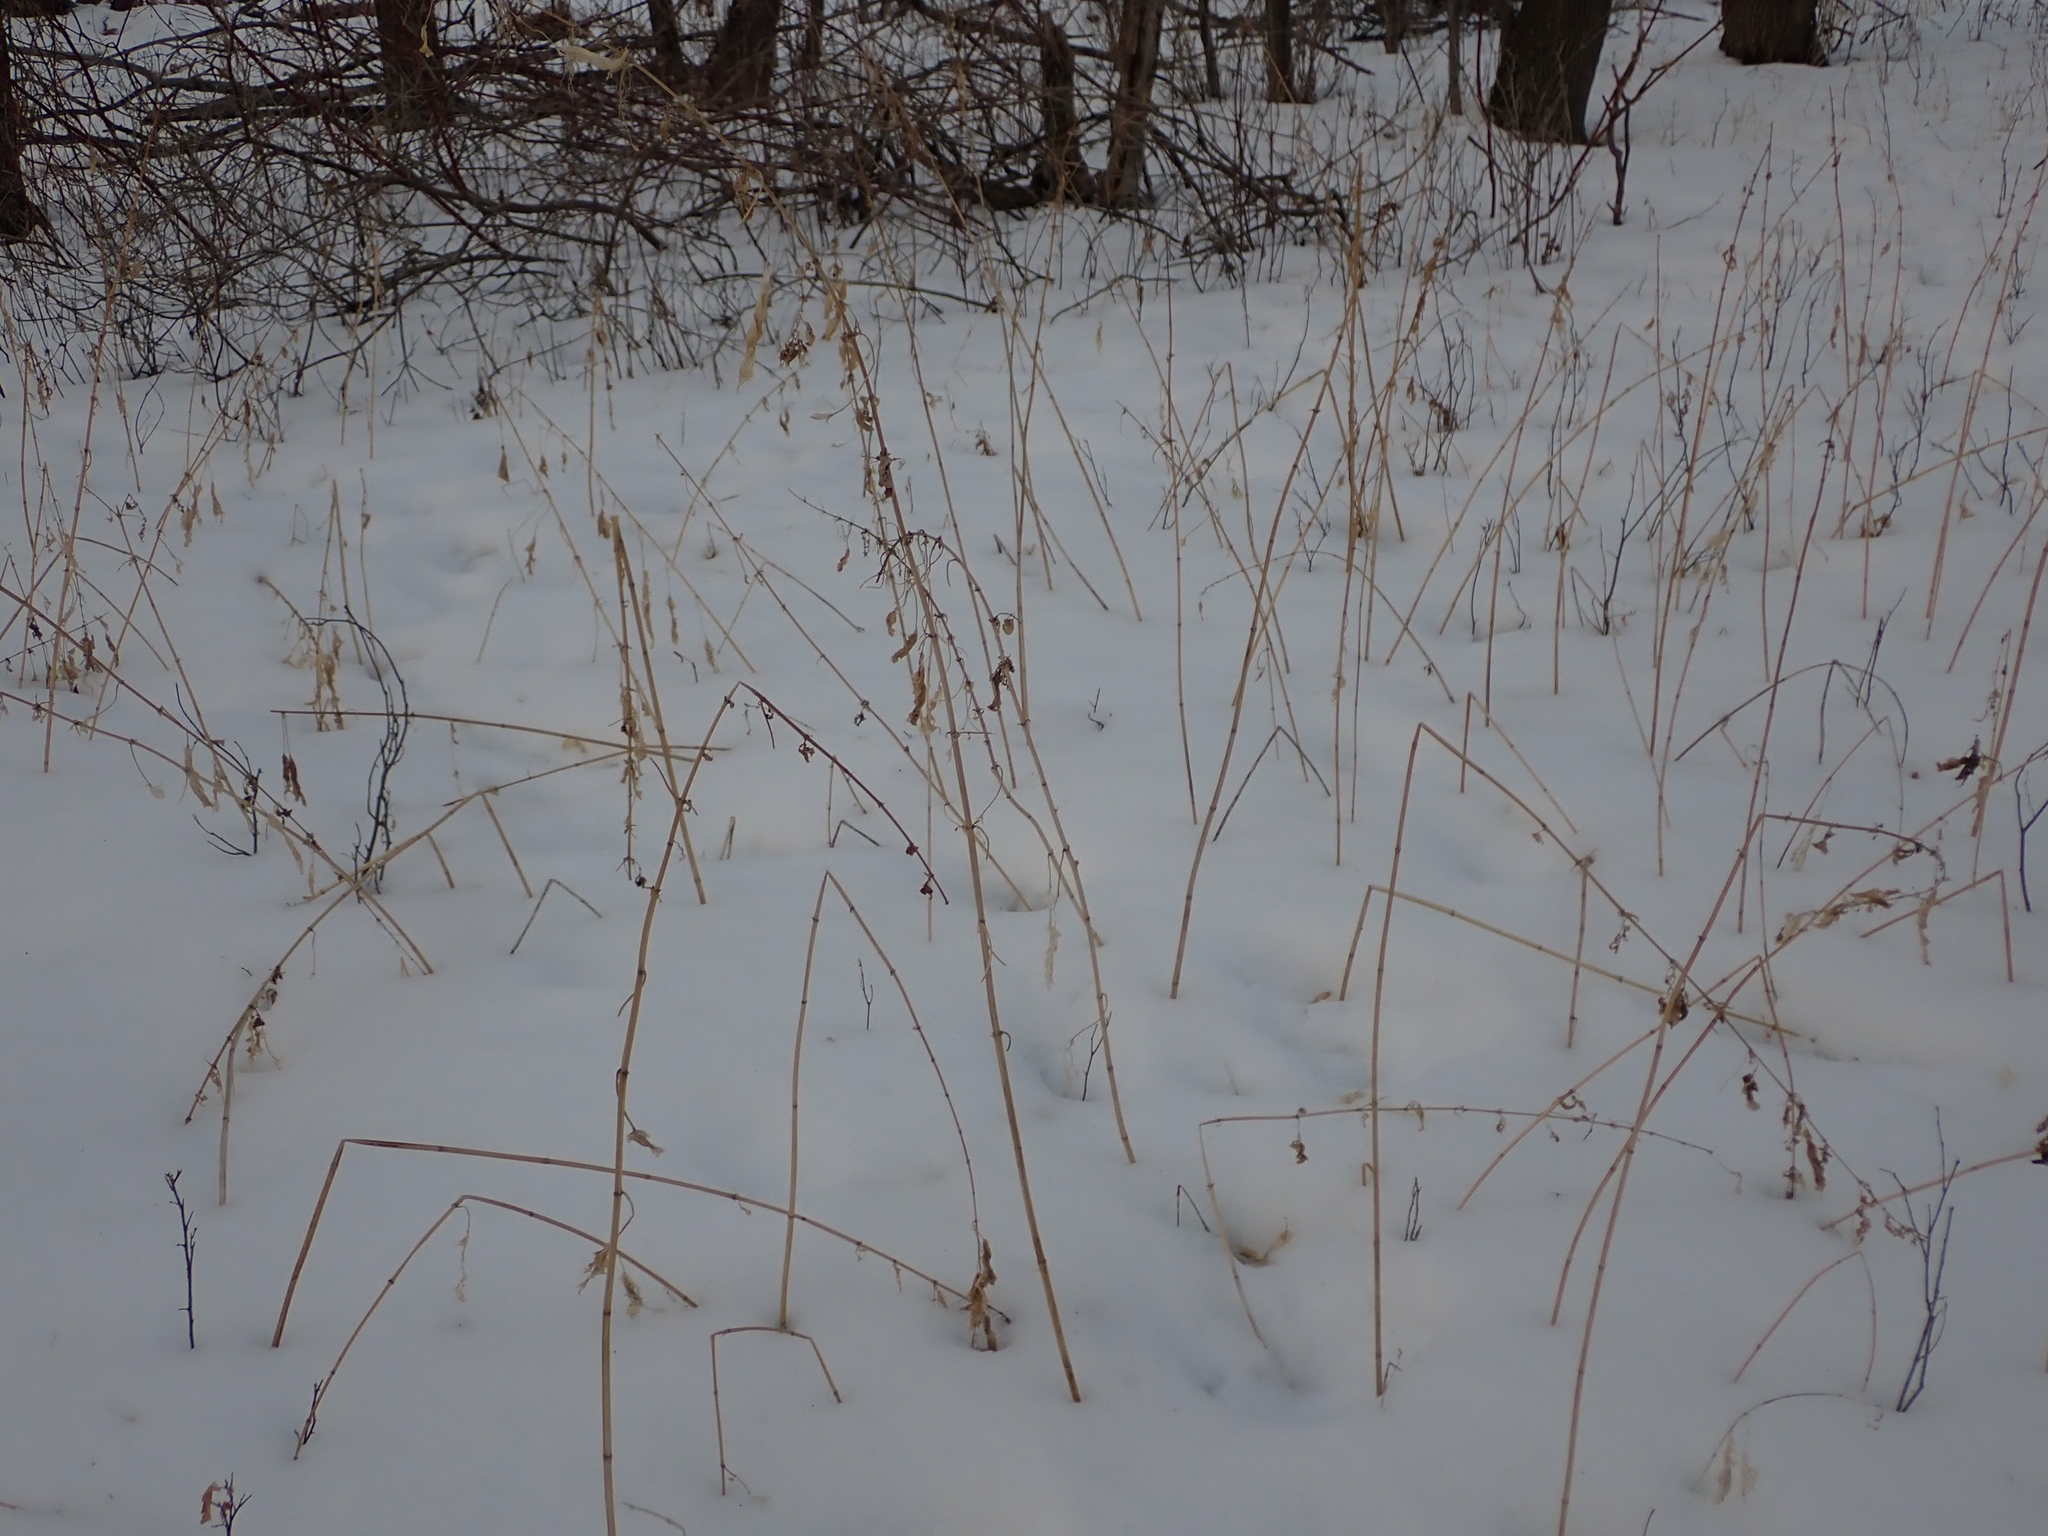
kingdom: Plantae
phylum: Tracheophyta
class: Magnoliopsida
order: Rosales
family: Urticaceae
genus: Urtica
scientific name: Urtica gracilis
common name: Slender stinging nettle
